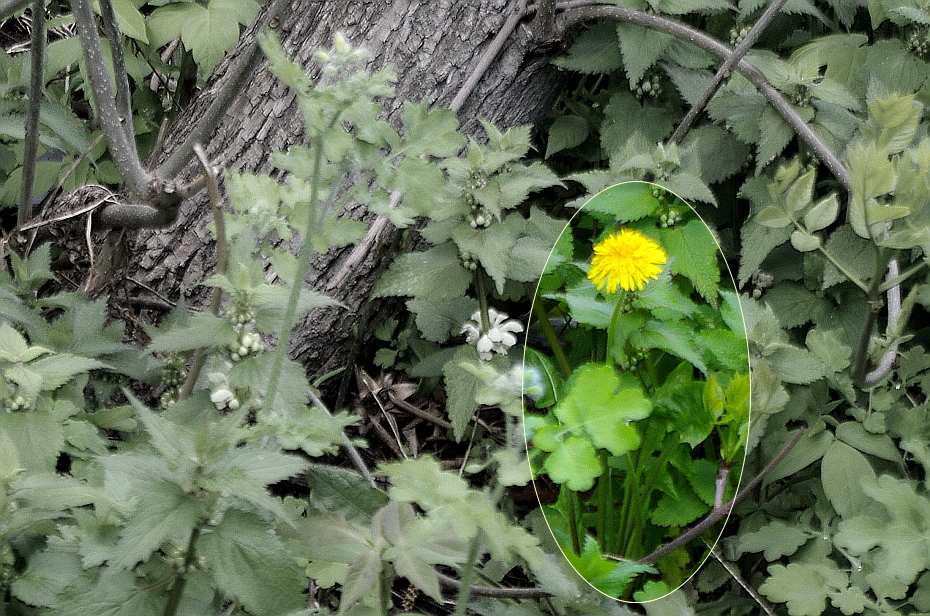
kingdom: Plantae
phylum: Tracheophyta
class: Magnoliopsida
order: Asterales
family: Asteraceae
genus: Taraxacum
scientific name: Taraxacum officinale
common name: Common dandelion
